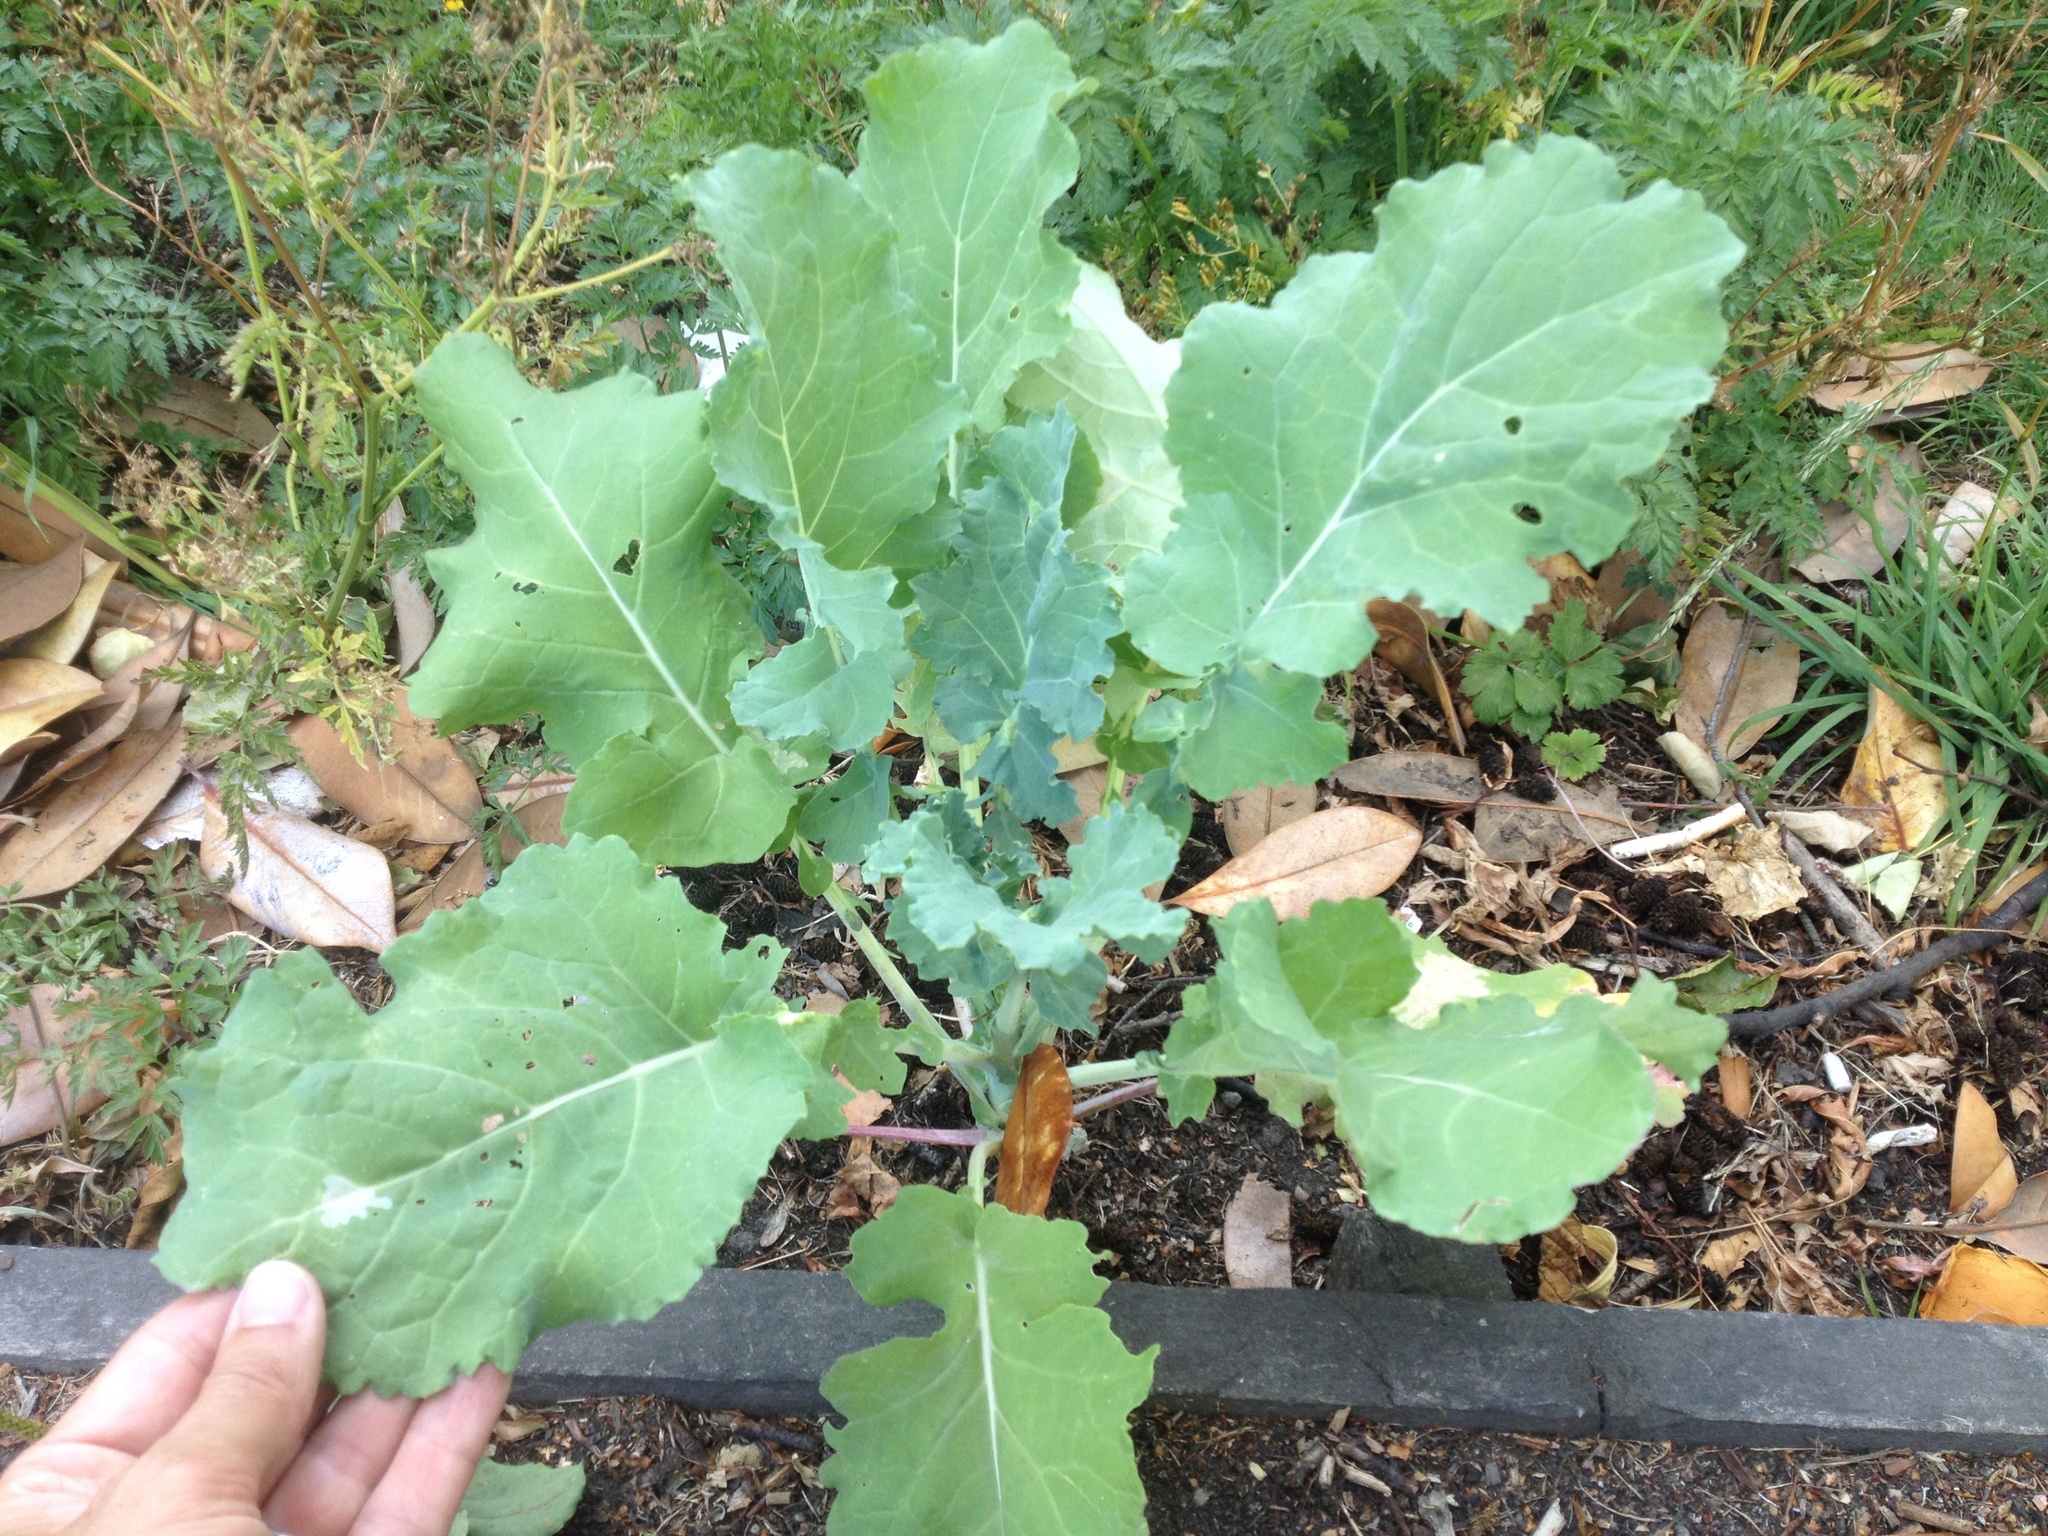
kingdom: Plantae
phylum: Tracheophyta
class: Magnoliopsida
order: Brassicales
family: Brassicaceae
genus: Brassica
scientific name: Brassica oleracea
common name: Cabbage
